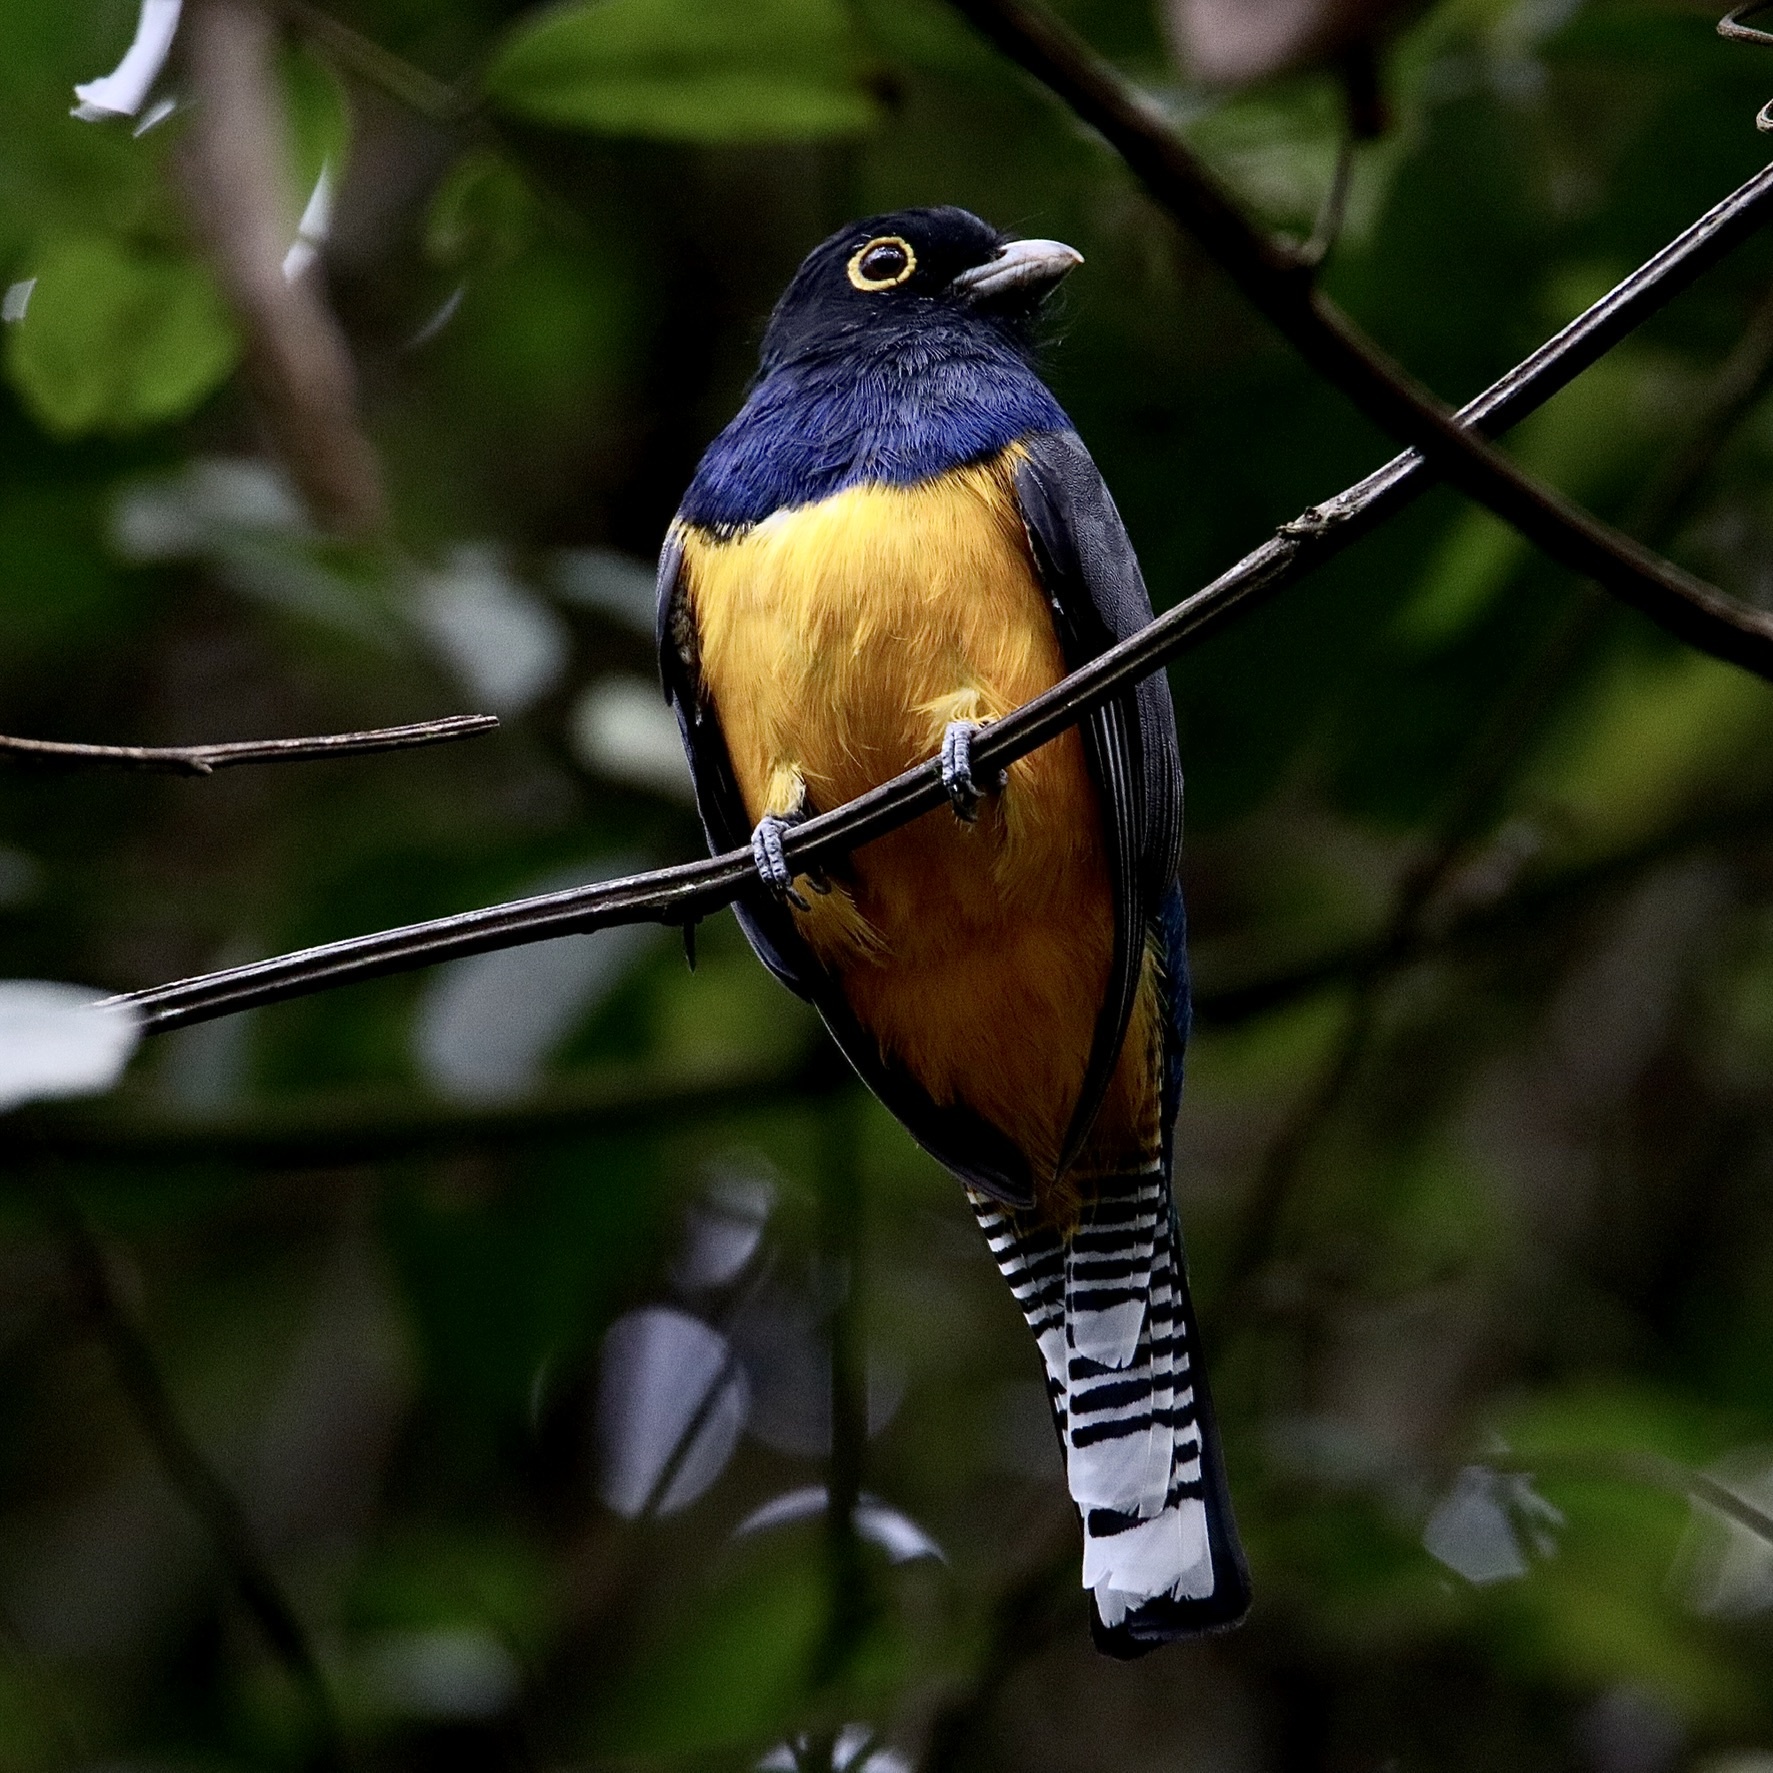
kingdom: Animalia
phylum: Chordata
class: Aves
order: Trogoniformes
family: Trogonidae
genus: Trogon
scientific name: Trogon caligatus
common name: Gartered trogon
